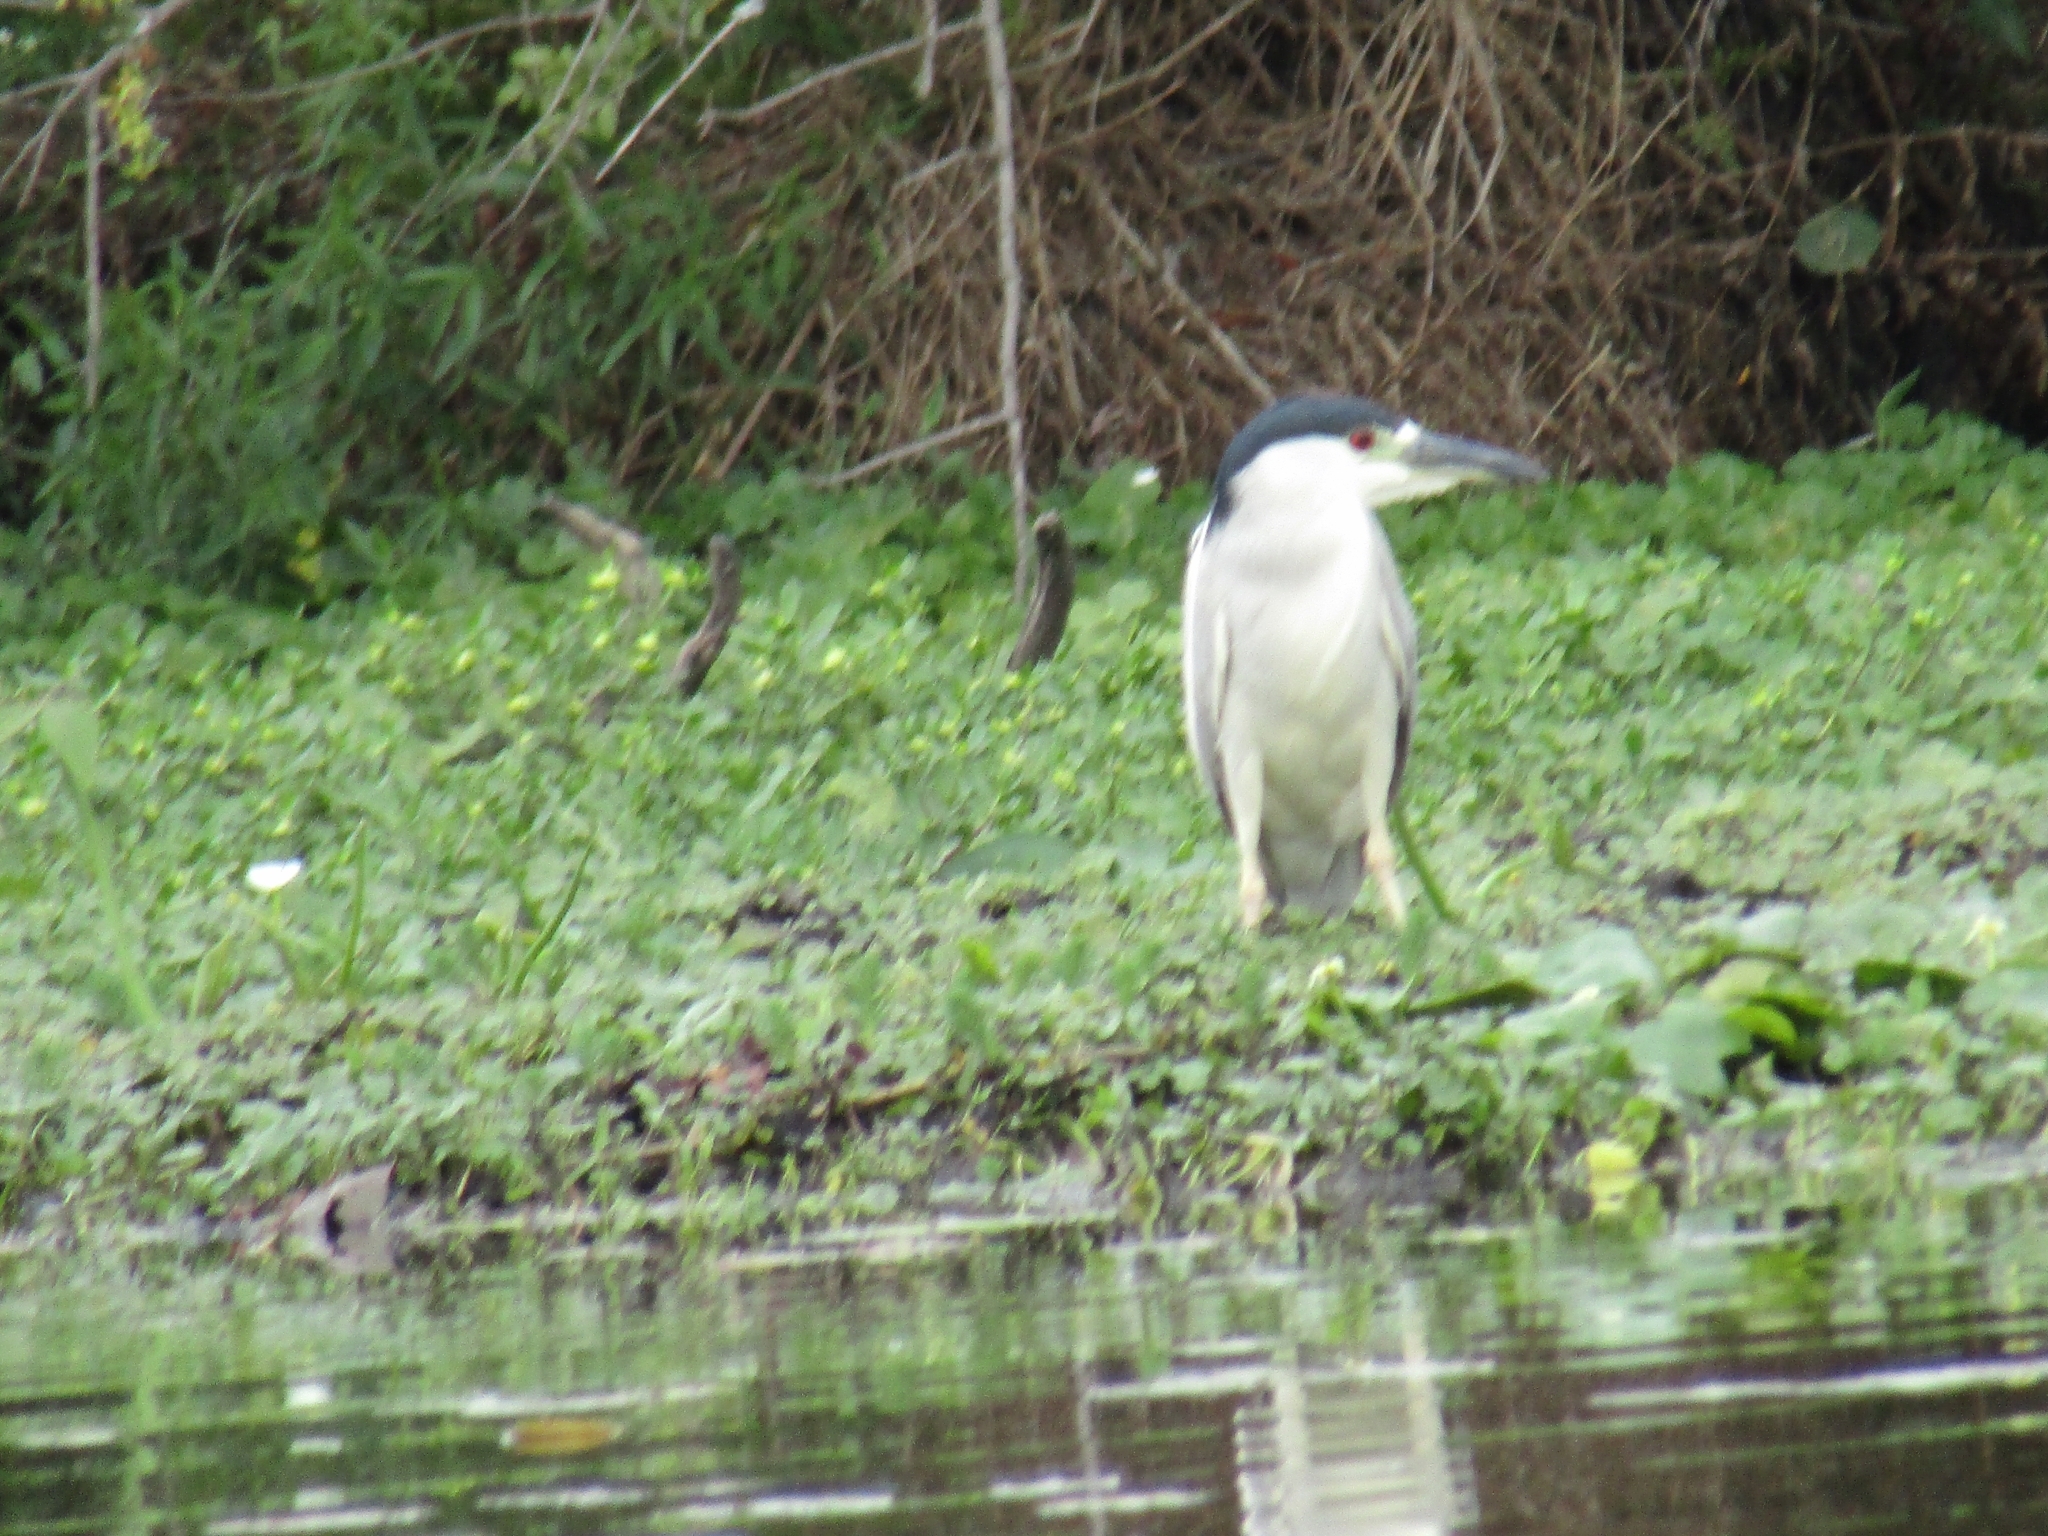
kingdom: Animalia
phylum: Chordata
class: Aves
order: Pelecaniformes
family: Ardeidae
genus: Nycticorax
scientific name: Nycticorax nycticorax
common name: Black-crowned night heron
